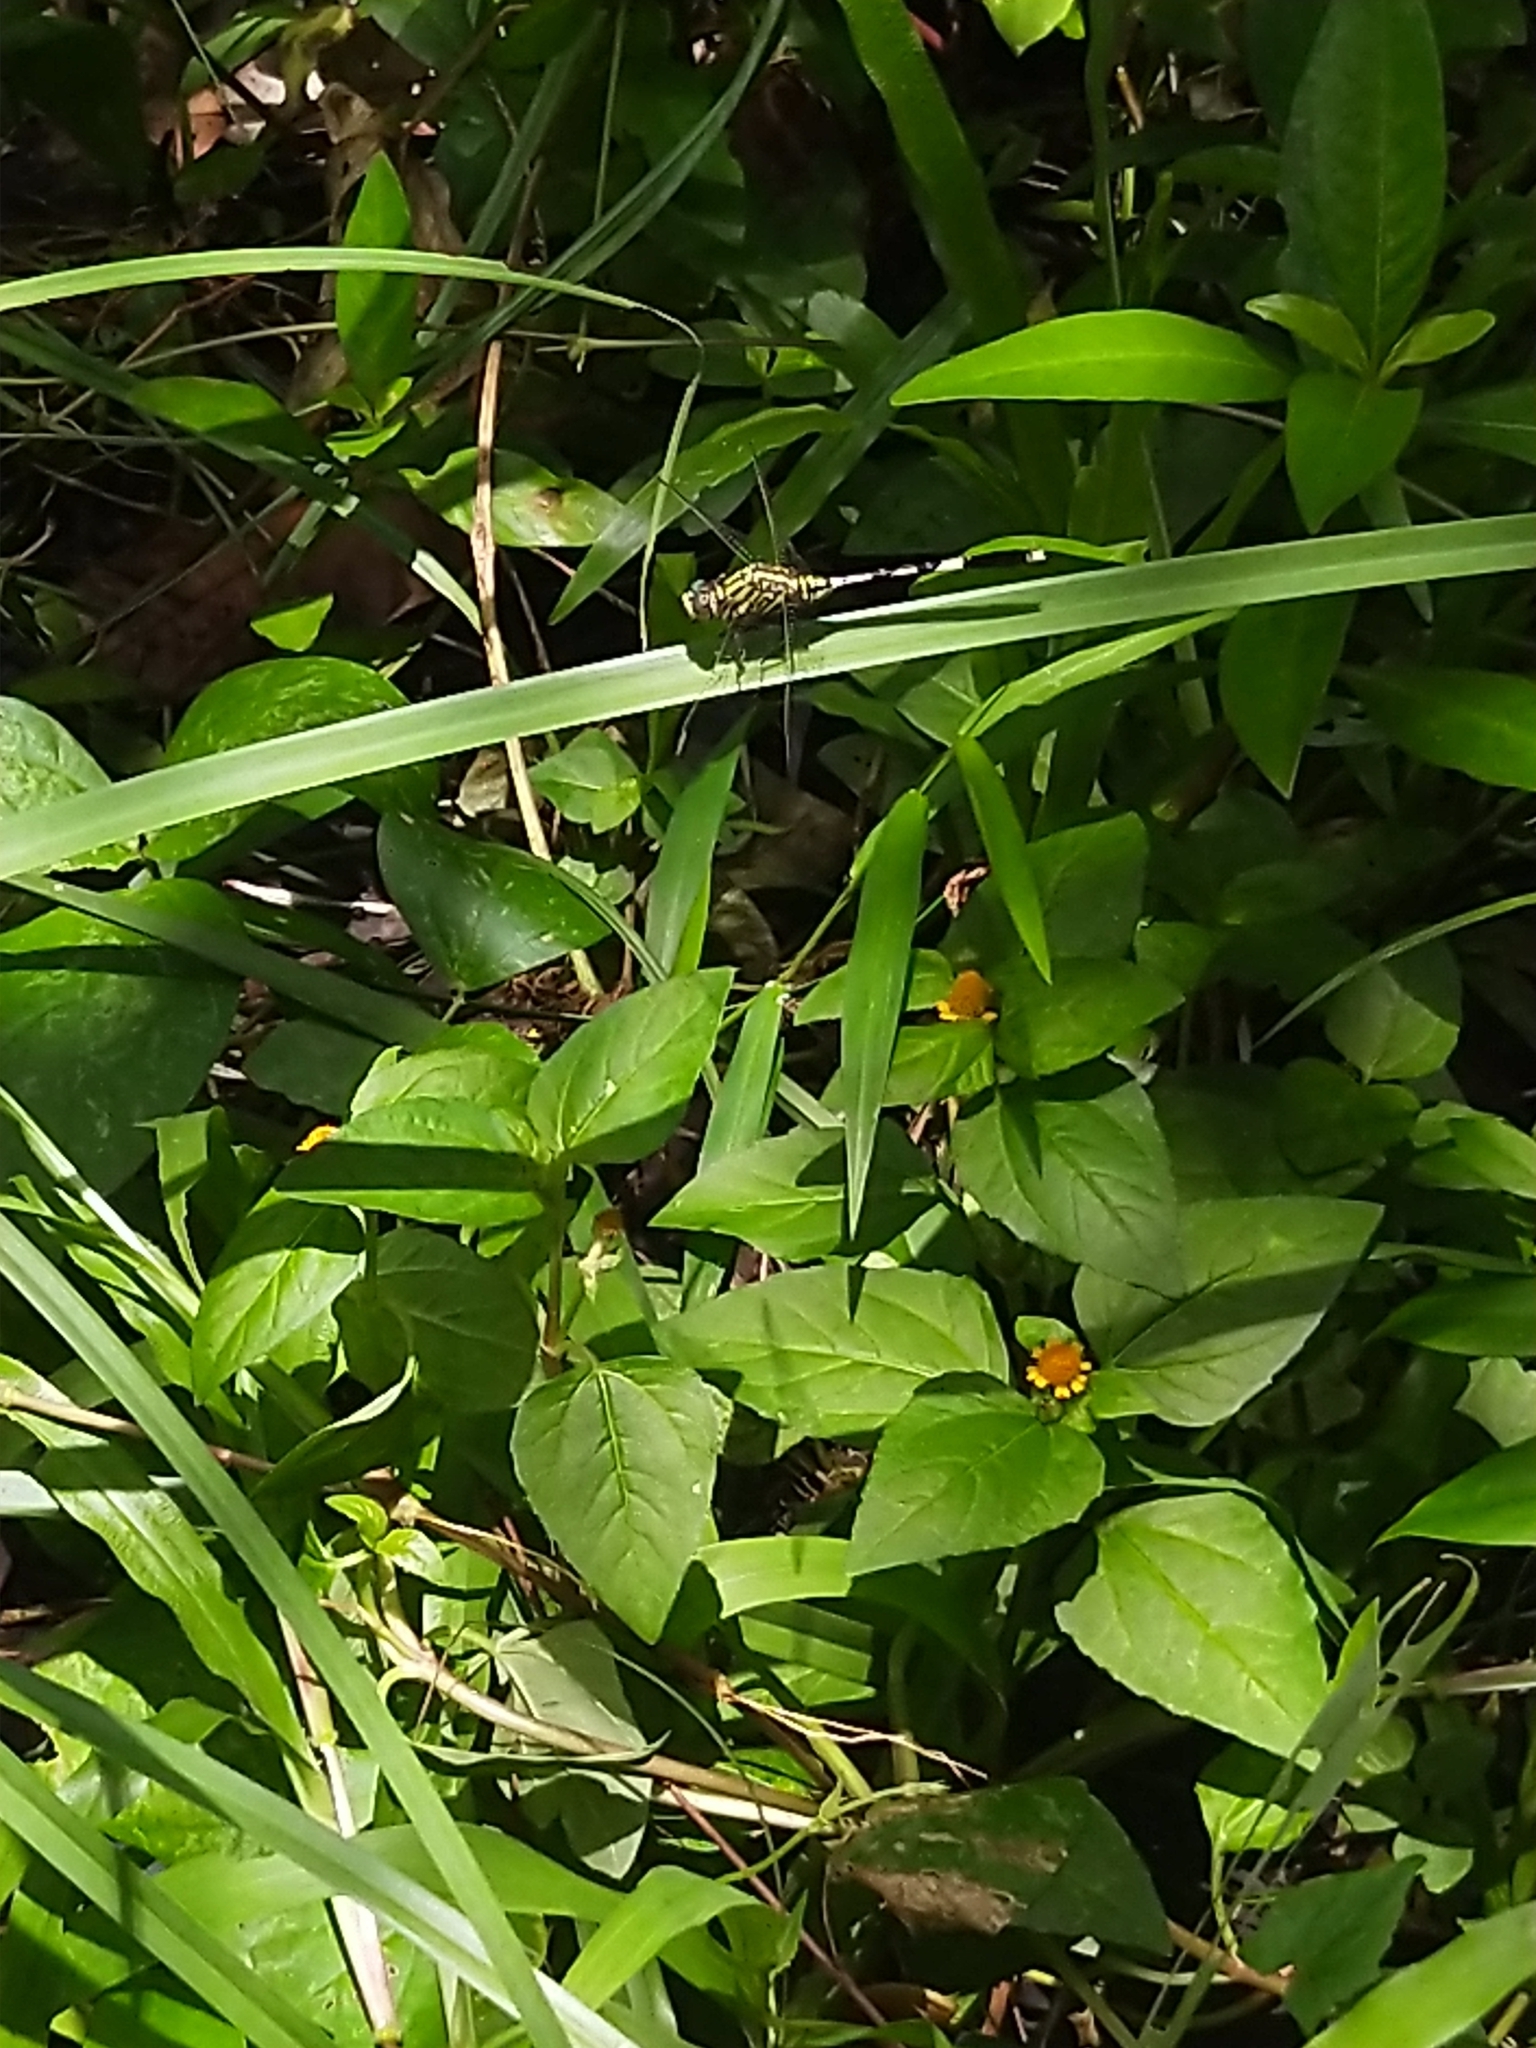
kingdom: Animalia
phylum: Arthropoda
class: Insecta
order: Odonata
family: Libellulidae
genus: Orthetrum
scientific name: Orthetrum sabina
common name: Slender skimmer
